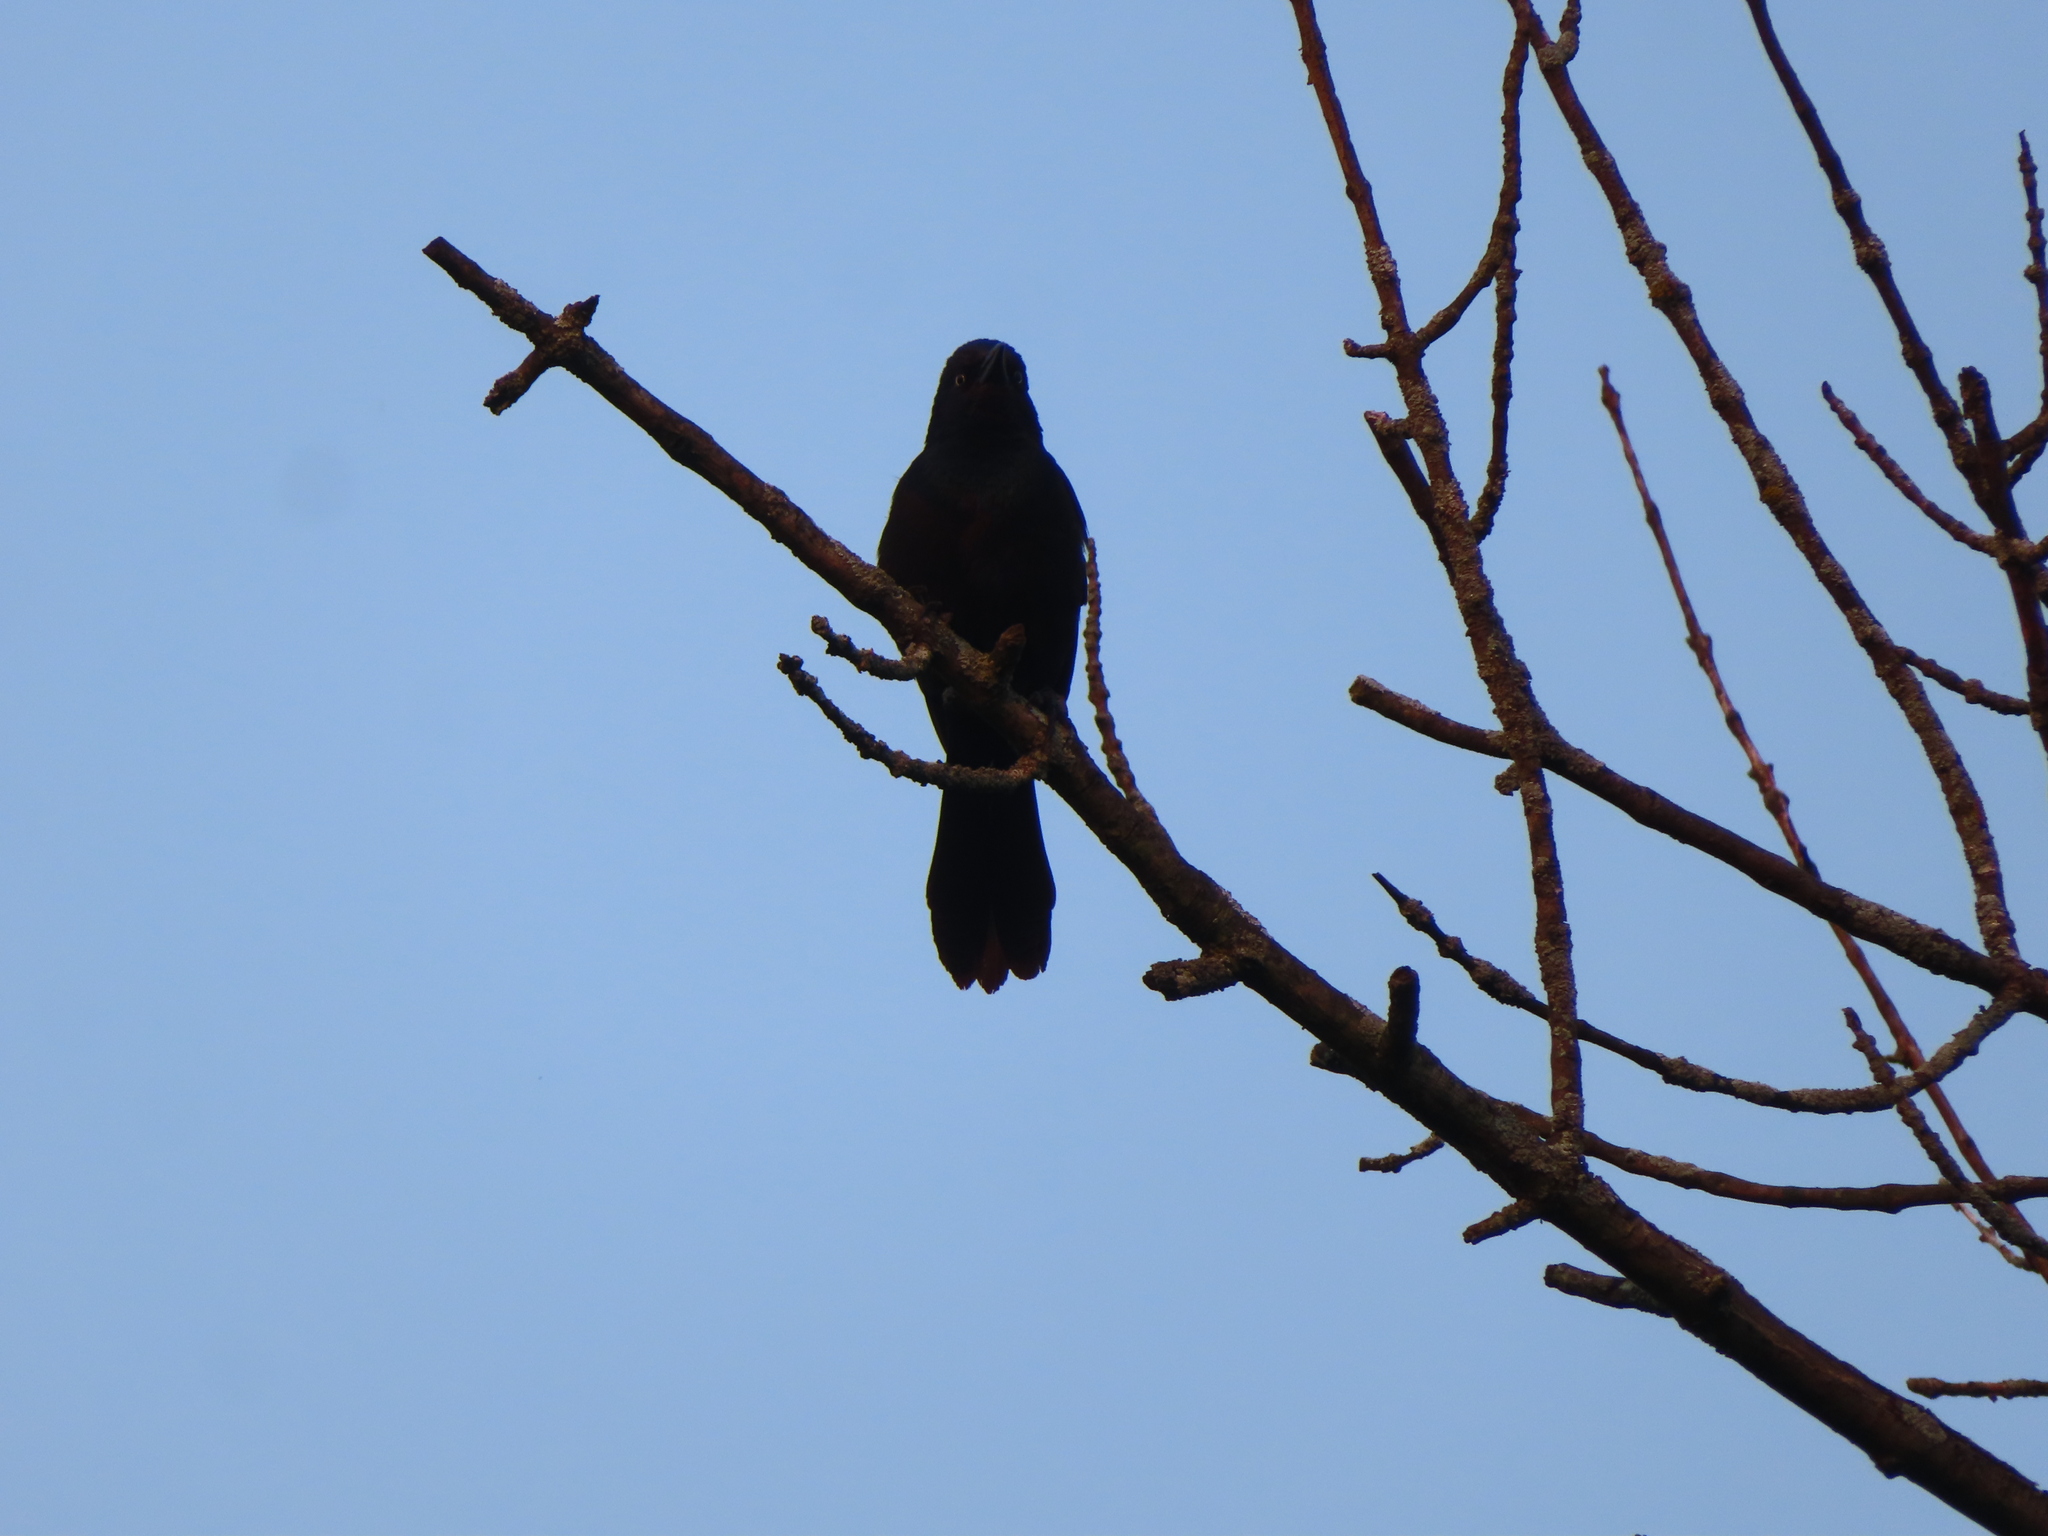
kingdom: Animalia
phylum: Chordata
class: Aves
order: Passeriformes
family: Icteridae
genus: Quiscalus
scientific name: Quiscalus quiscula
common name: Common grackle
